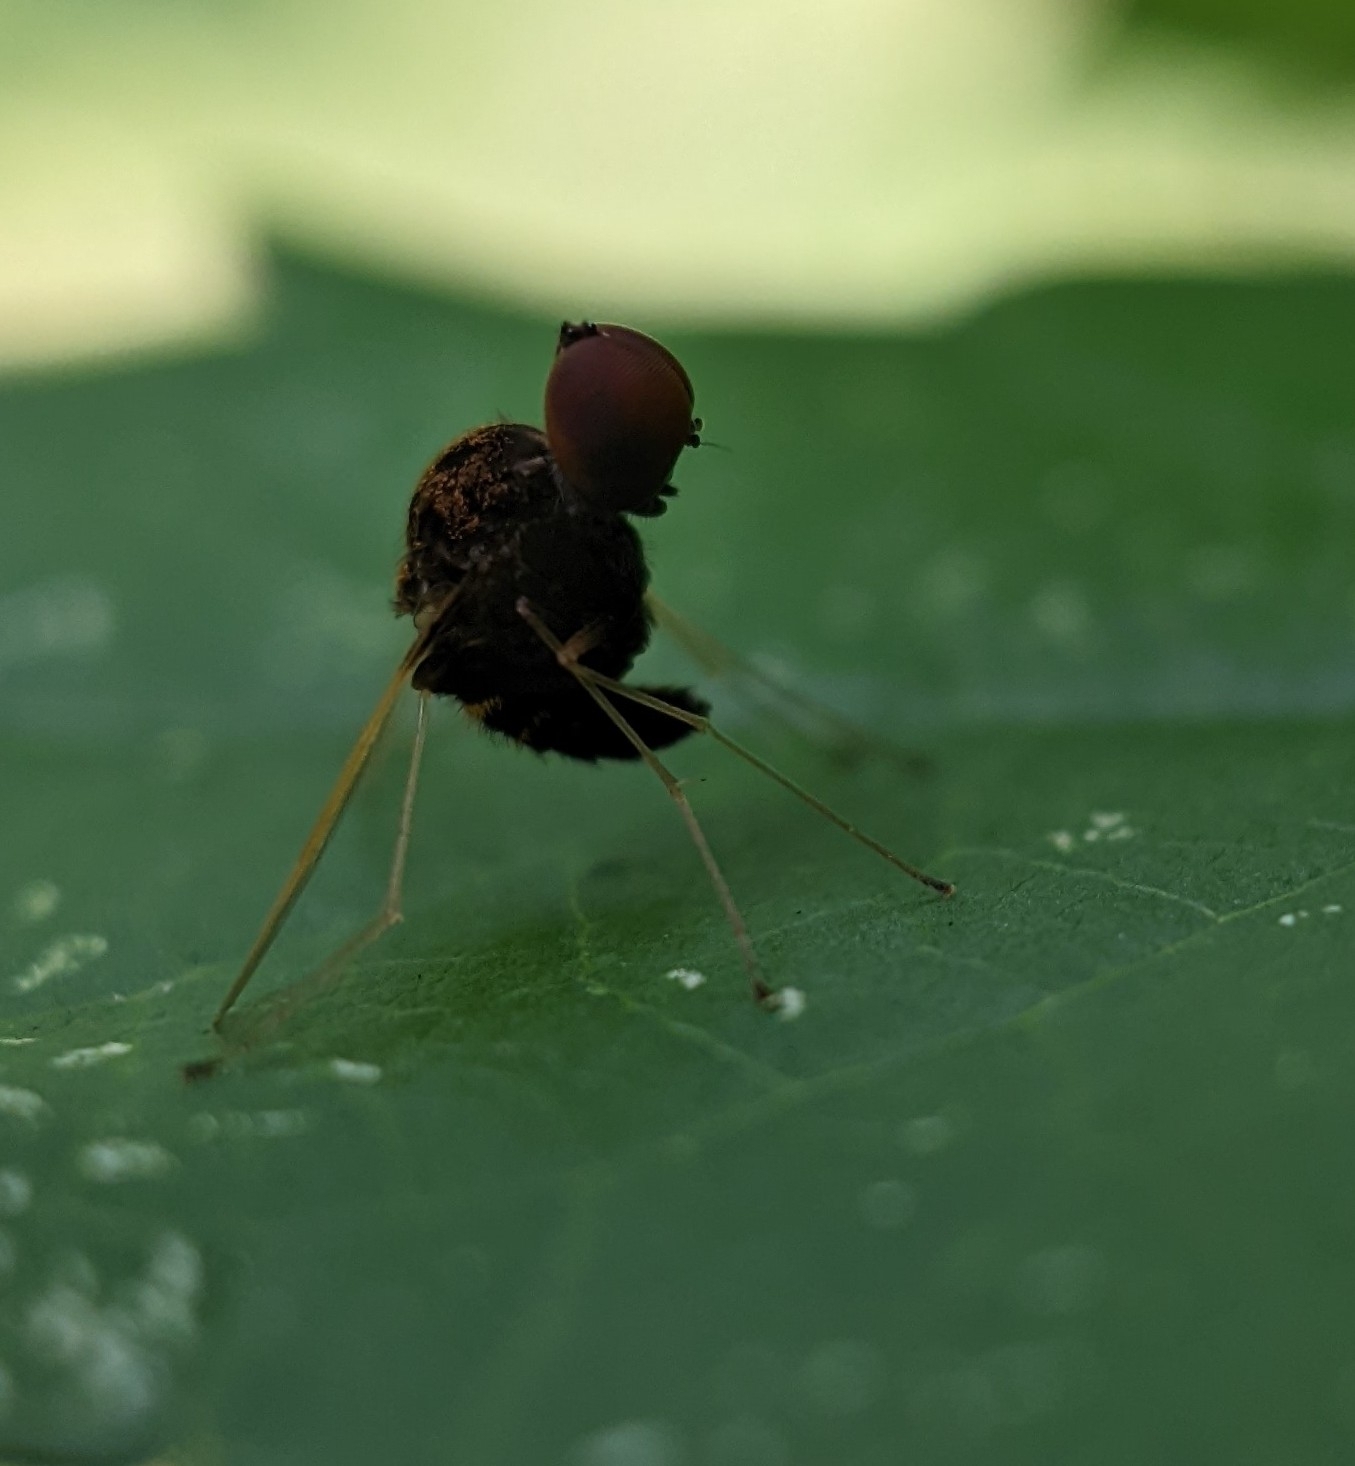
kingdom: Animalia
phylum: Arthropoda
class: Insecta
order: Diptera
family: Rhagionidae
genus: Chrysopilus
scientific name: Chrysopilus basilaris
